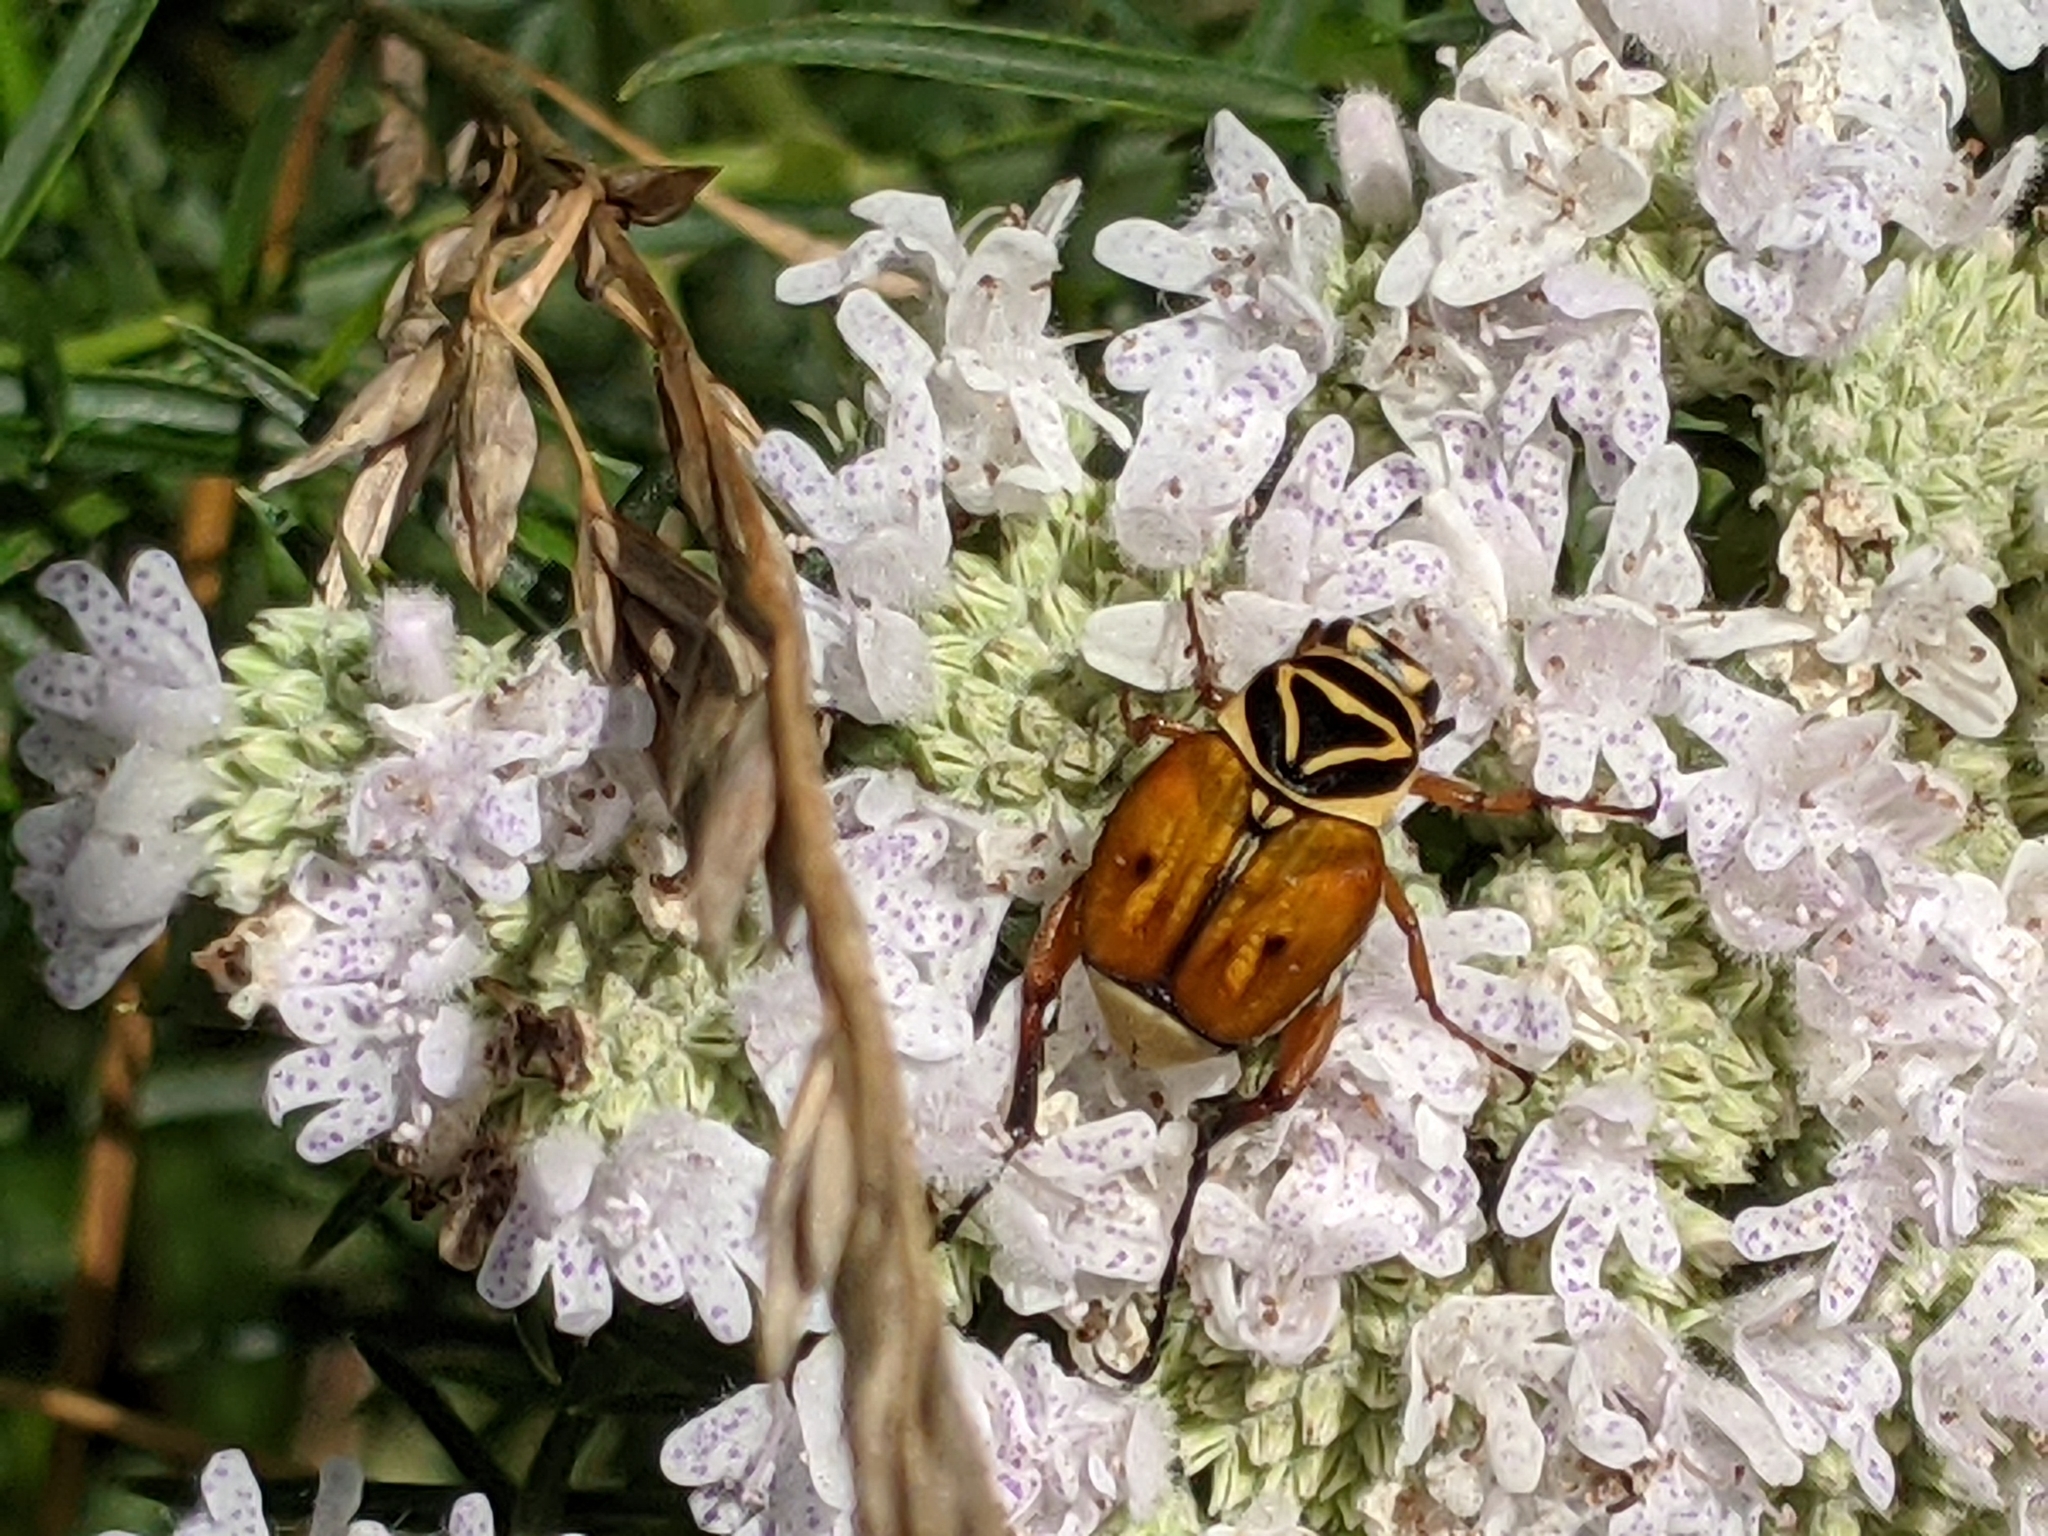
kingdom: Animalia
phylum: Arthropoda
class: Insecta
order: Coleoptera
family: Scarabaeidae
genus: Trigonopeltastes
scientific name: Trigonopeltastes delta
